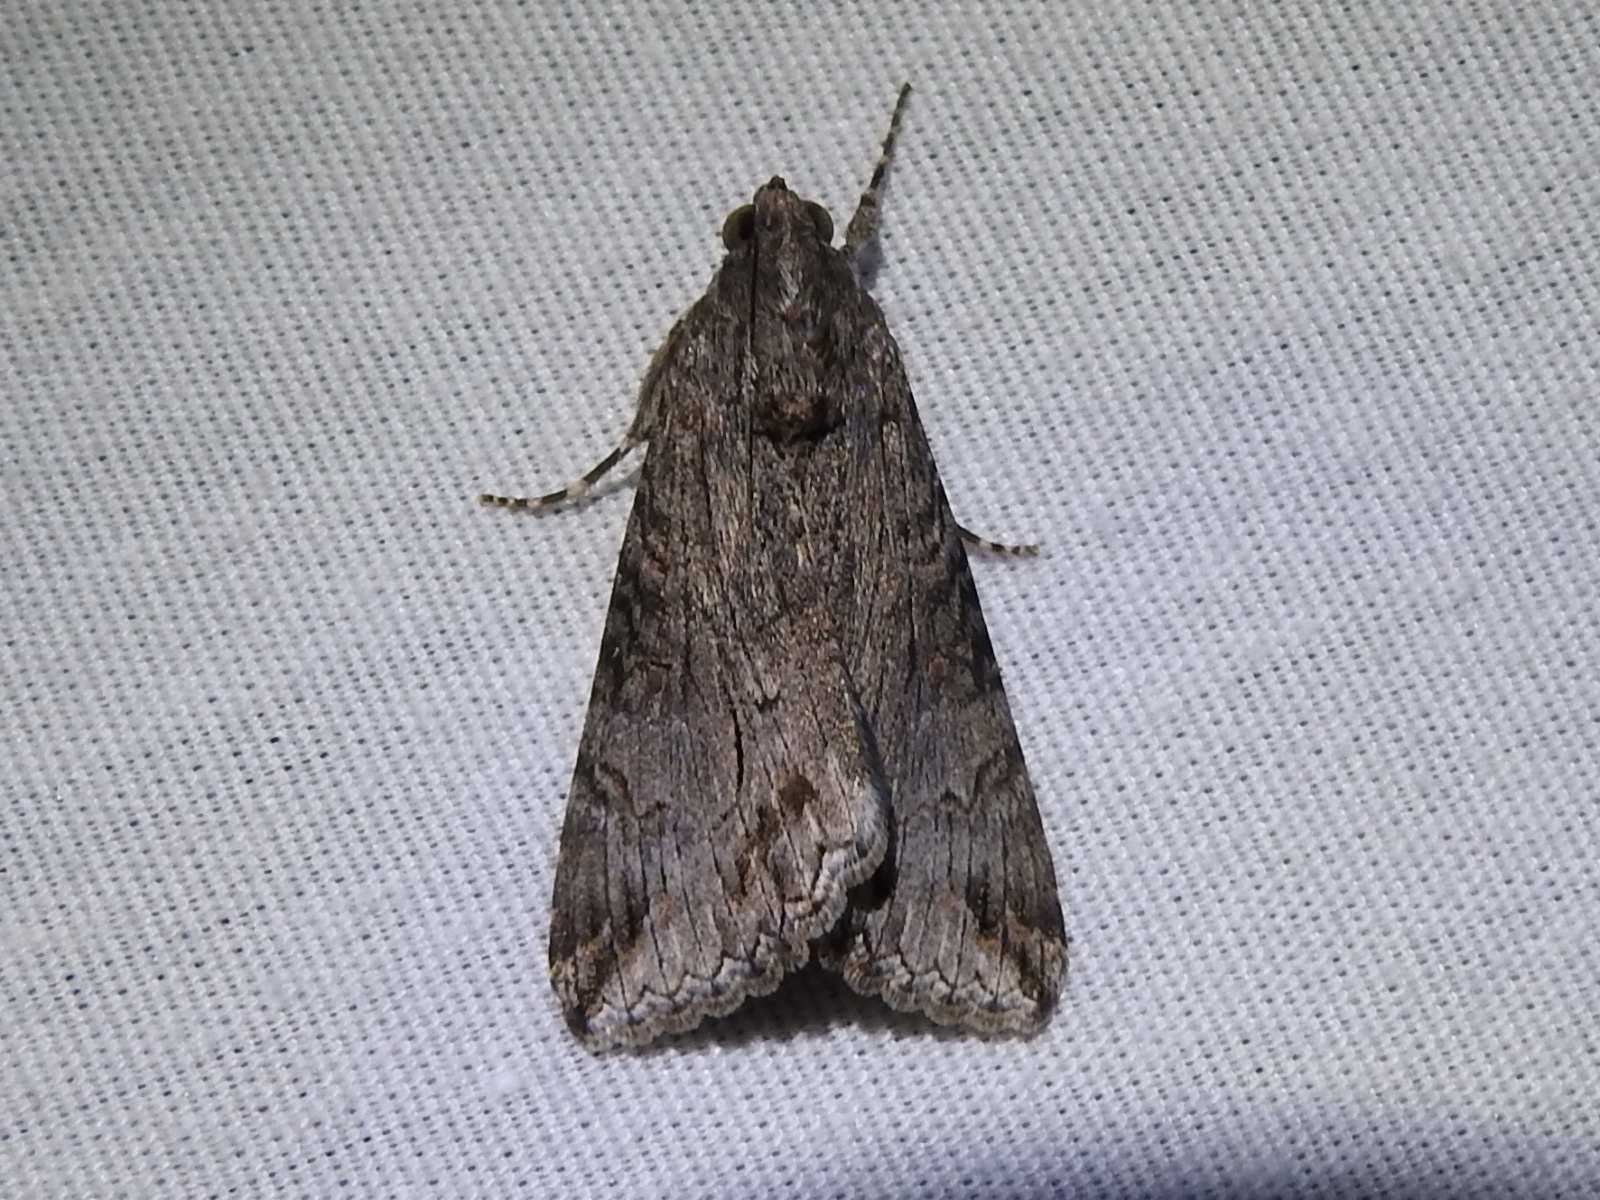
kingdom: Animalia
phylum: Arthropoda
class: Insecta
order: Lepidoptera
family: Erebidae
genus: Melipotis
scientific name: Melipotis jucunda
